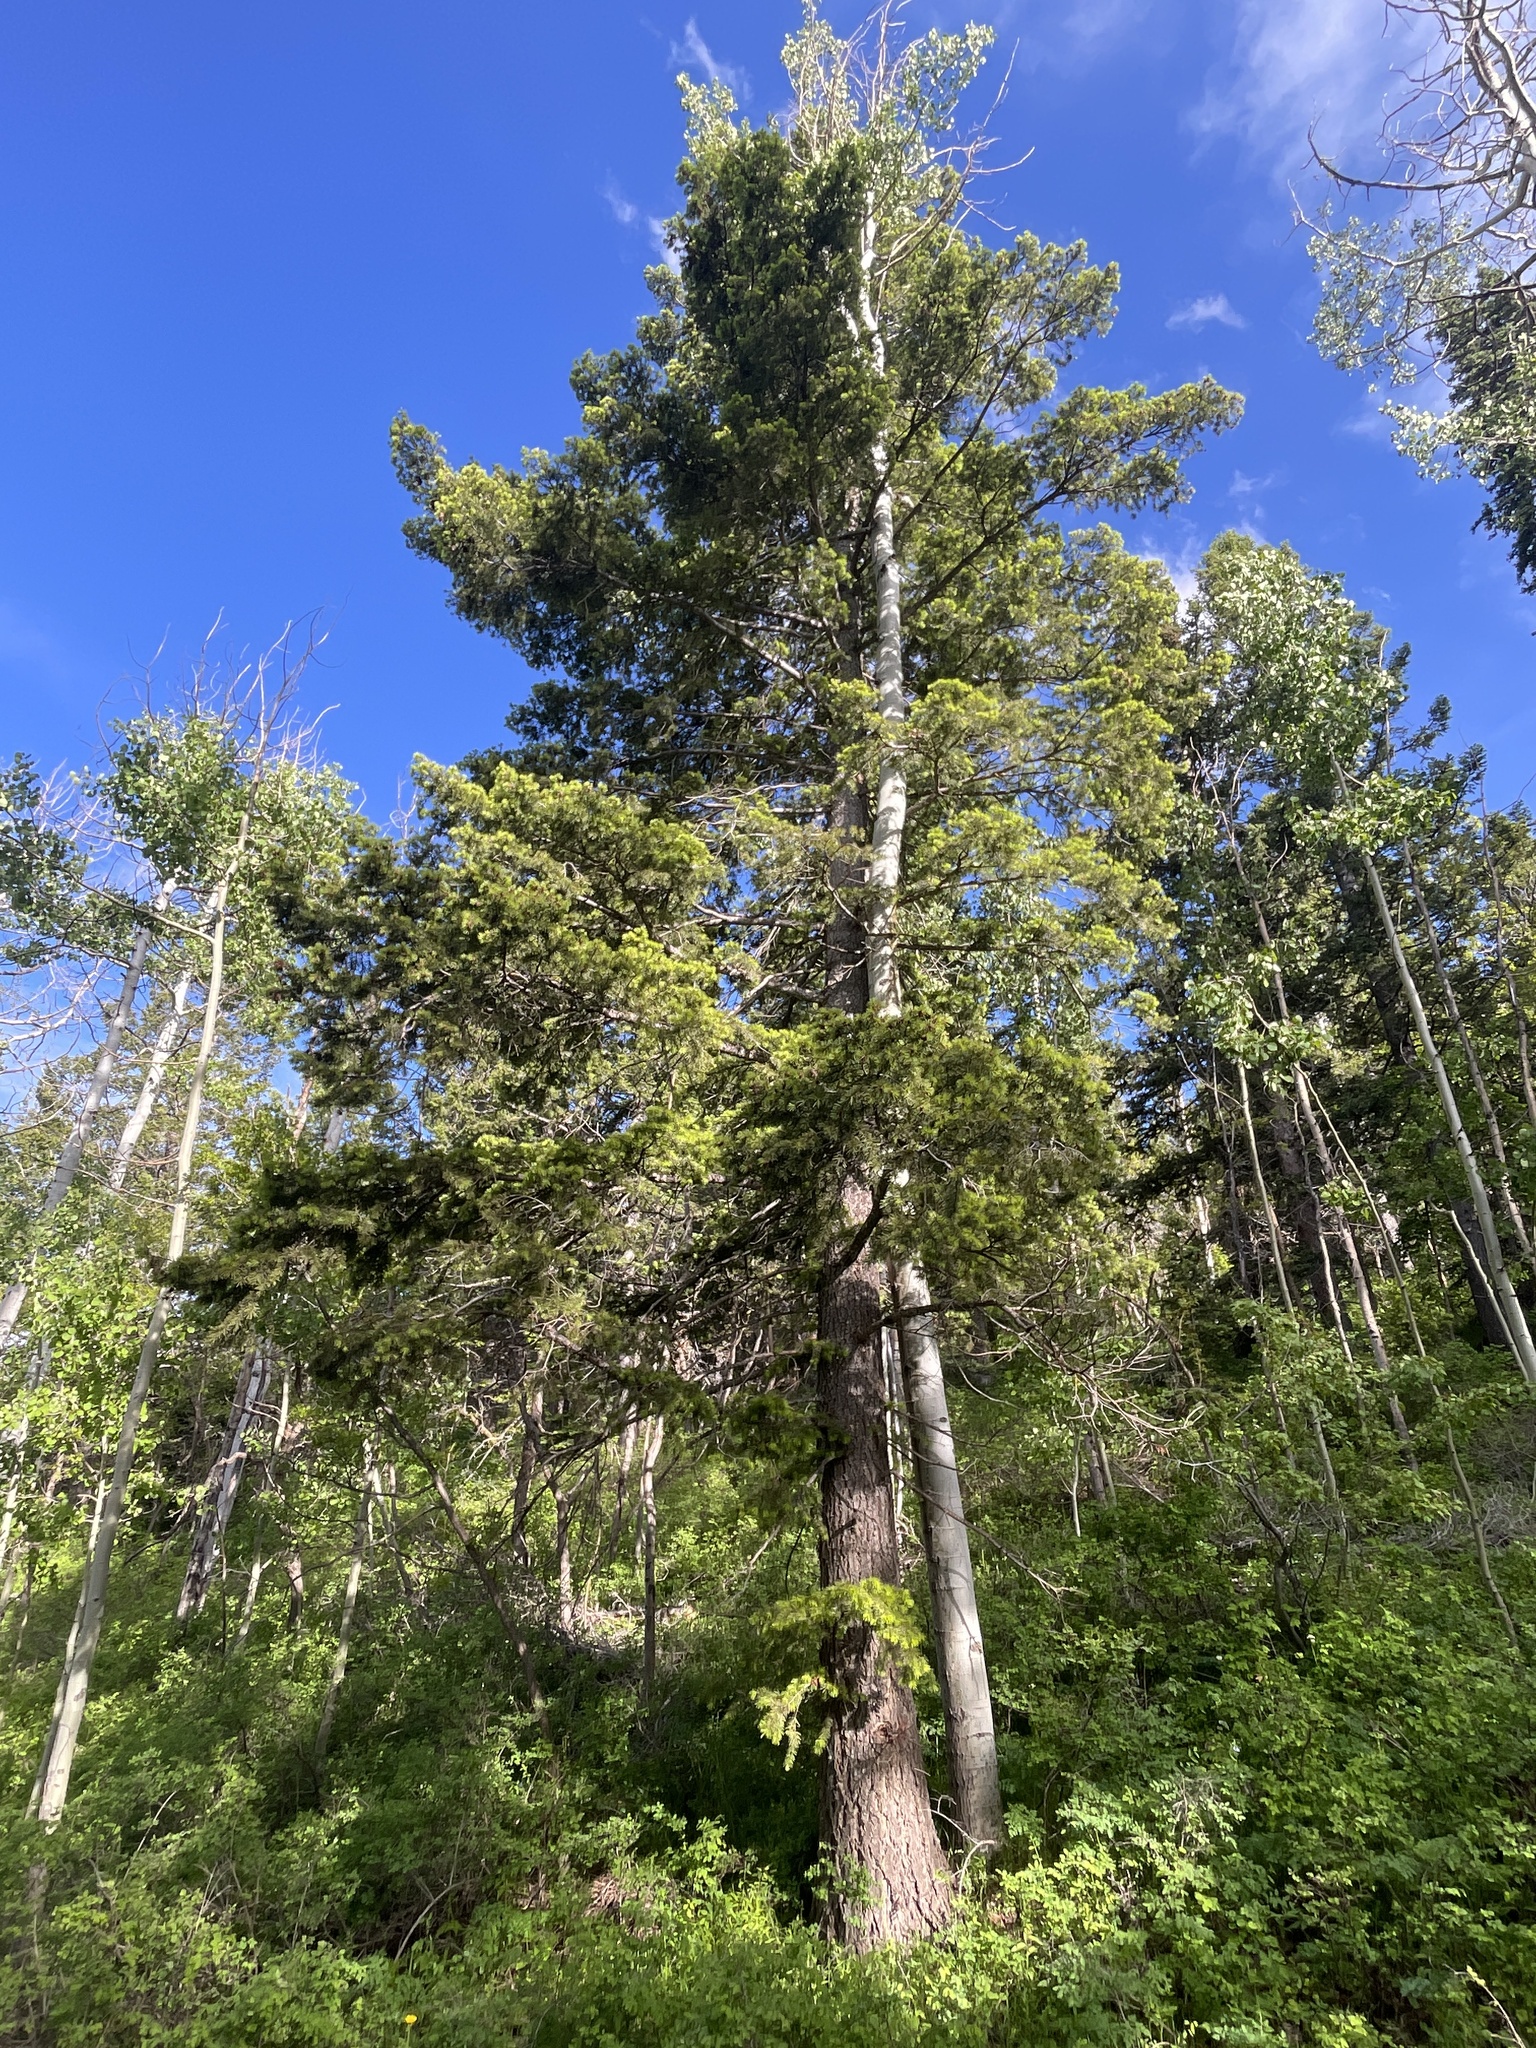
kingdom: Plantae
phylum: Tracheophyta
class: Pinopsida
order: Pinales
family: Pinaceae
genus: Pseudotsuga
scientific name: Pseudotsuga menziesii
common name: Douglas fir
